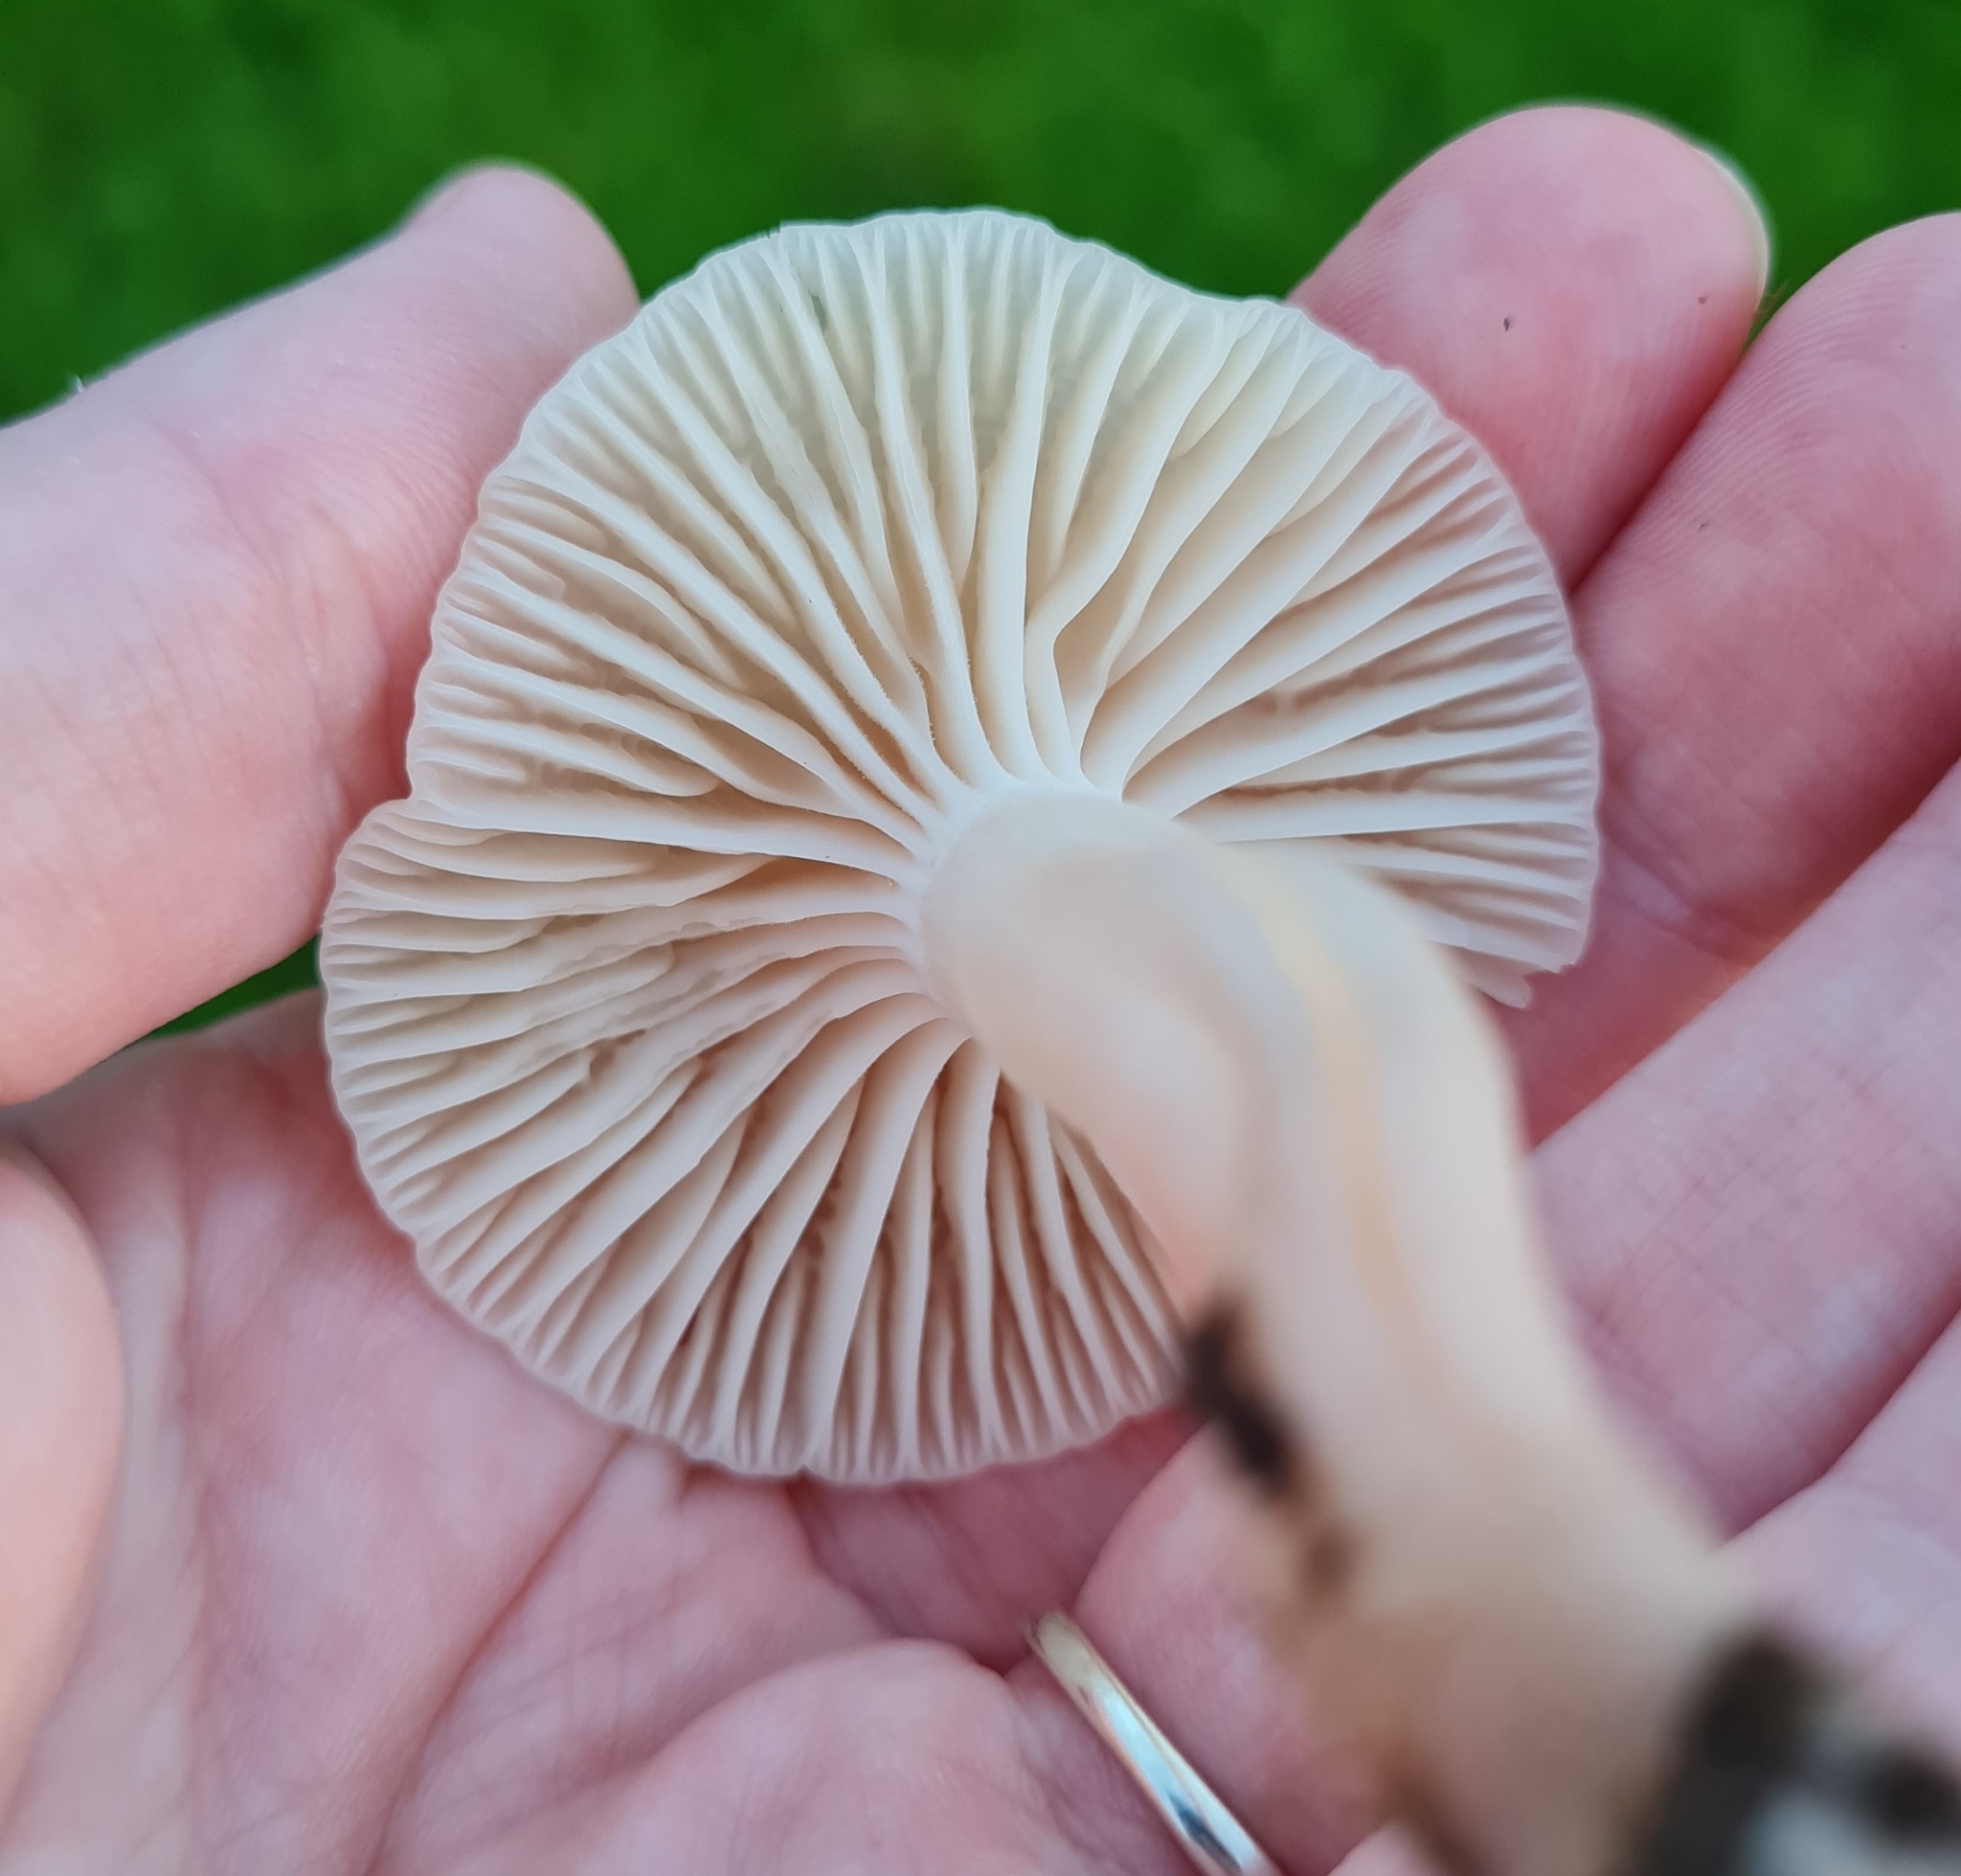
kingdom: Fungi
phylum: Basidiomycota
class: Agaricomycetes
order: Agaricales
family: Hygrophoraceae
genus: Cuphophyllus
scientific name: Cuphophyllus virgineus
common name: Snowy waxcap
